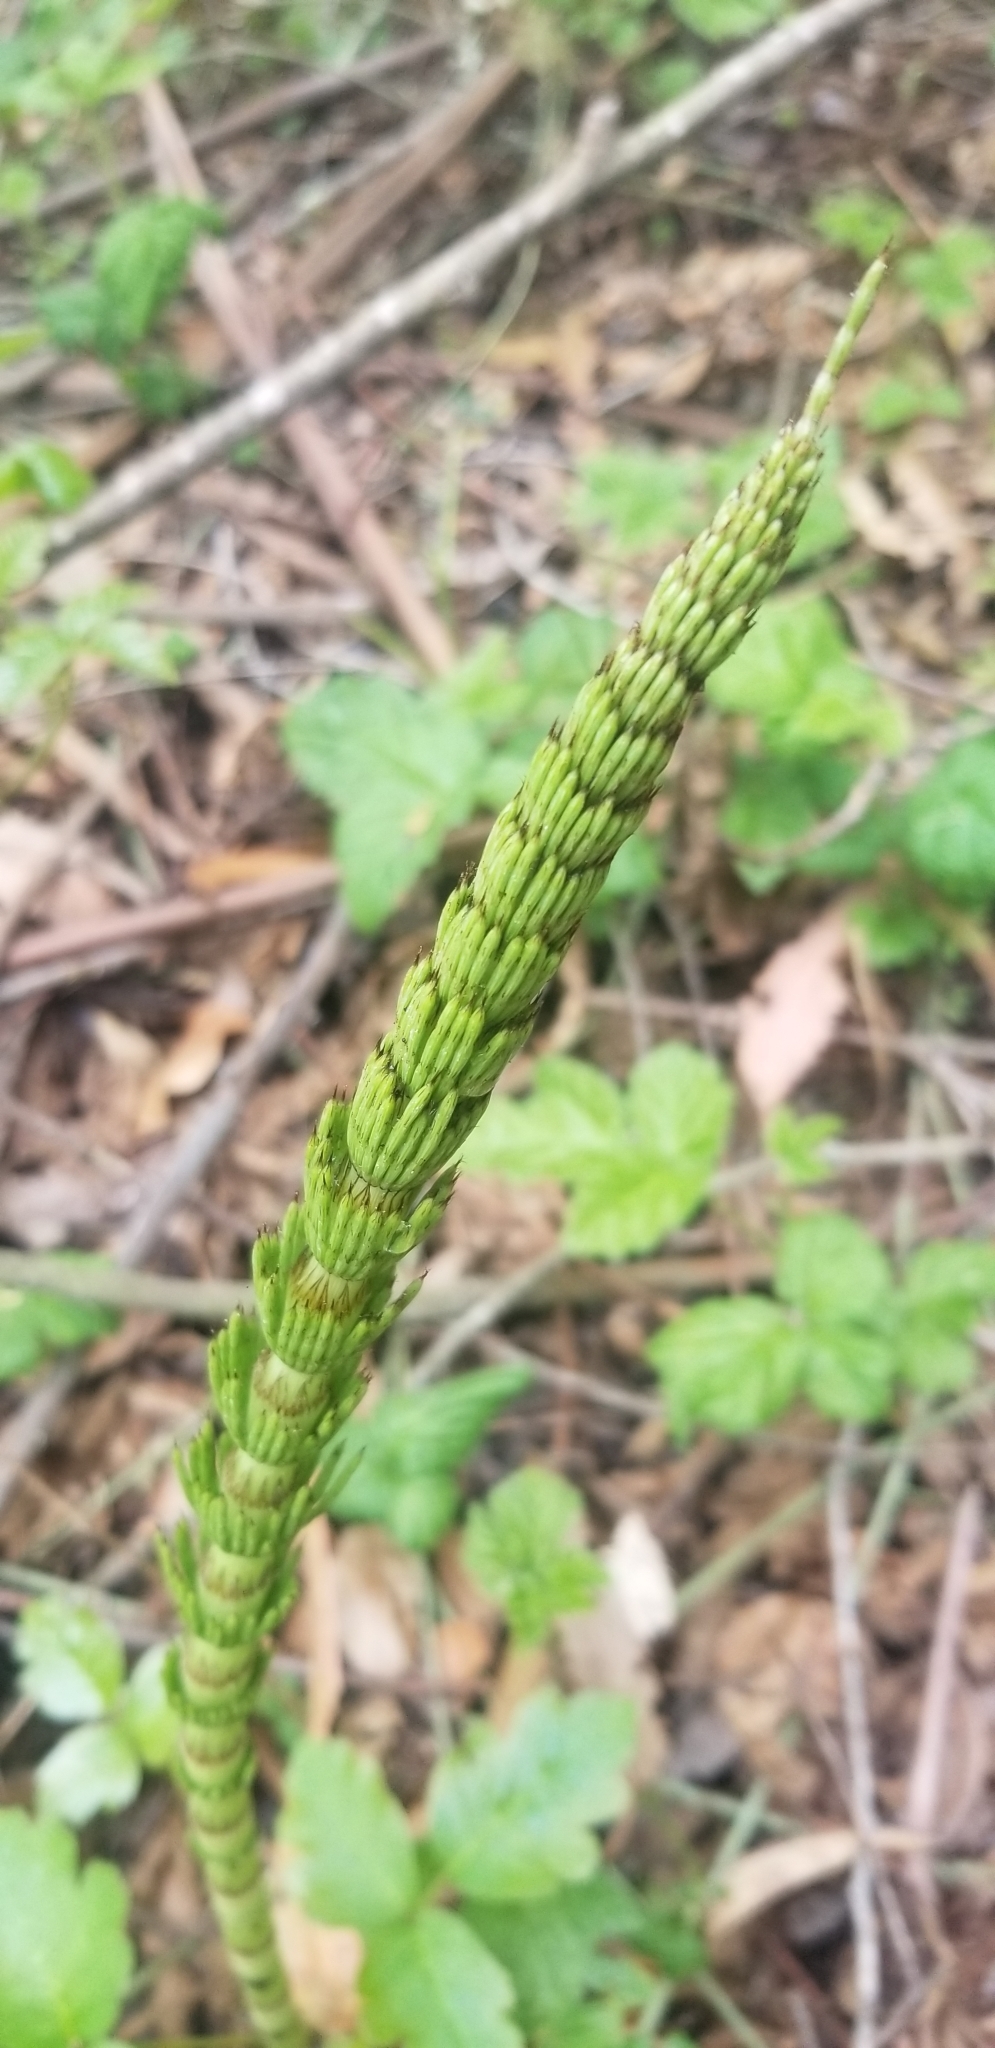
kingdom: Plantae
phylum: Tracheophyta
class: Polypodiopsida
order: Equisetales
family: Equisetaceae
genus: Equisetum
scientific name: Equisetum braunii
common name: Braun's horsetail
